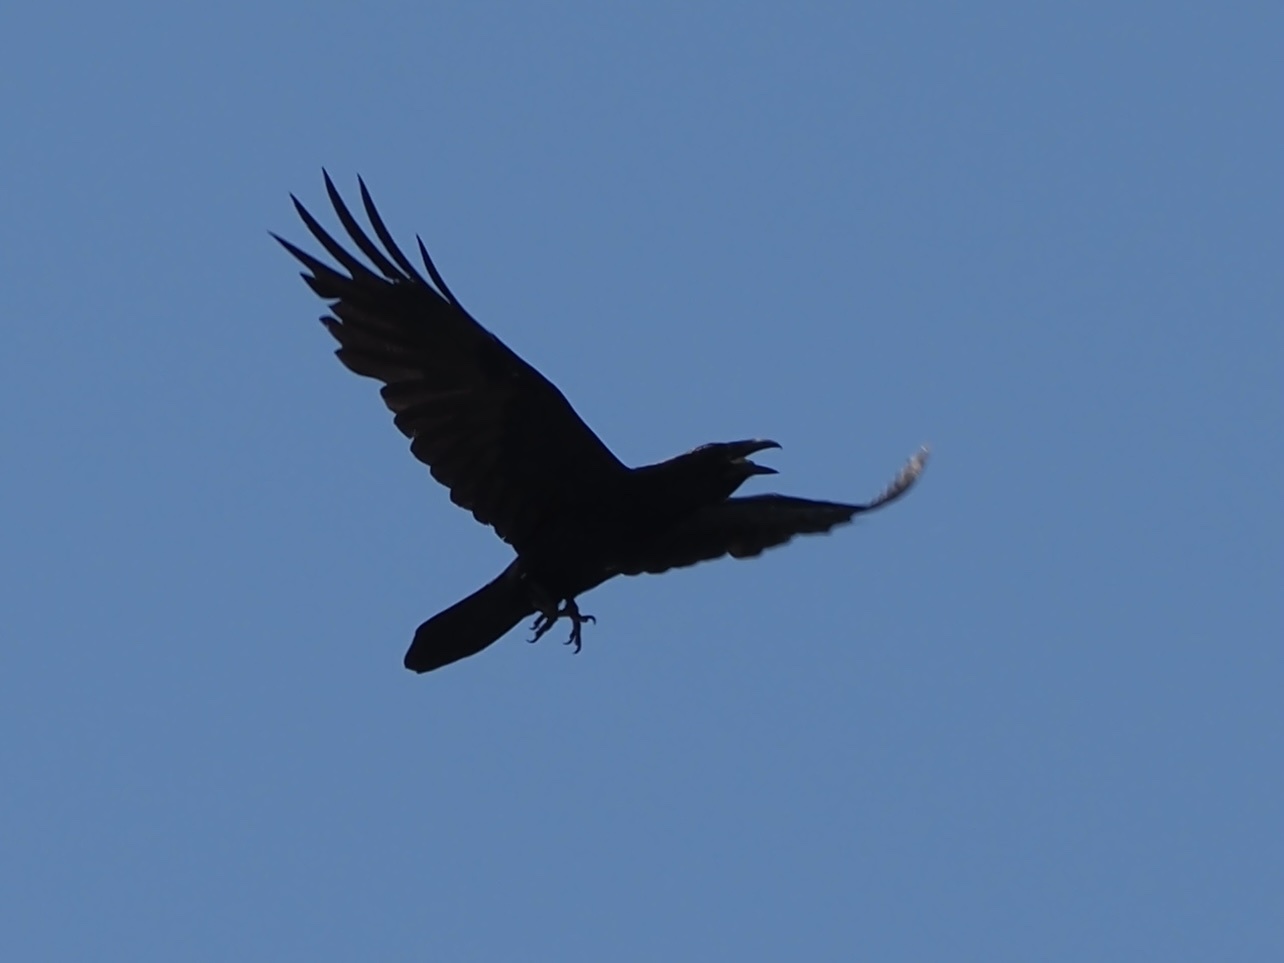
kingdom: Animalia
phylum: Chordata
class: Aves
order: Passeriformes
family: Corvidae
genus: Corvus
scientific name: Corvus corax
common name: Common raven
